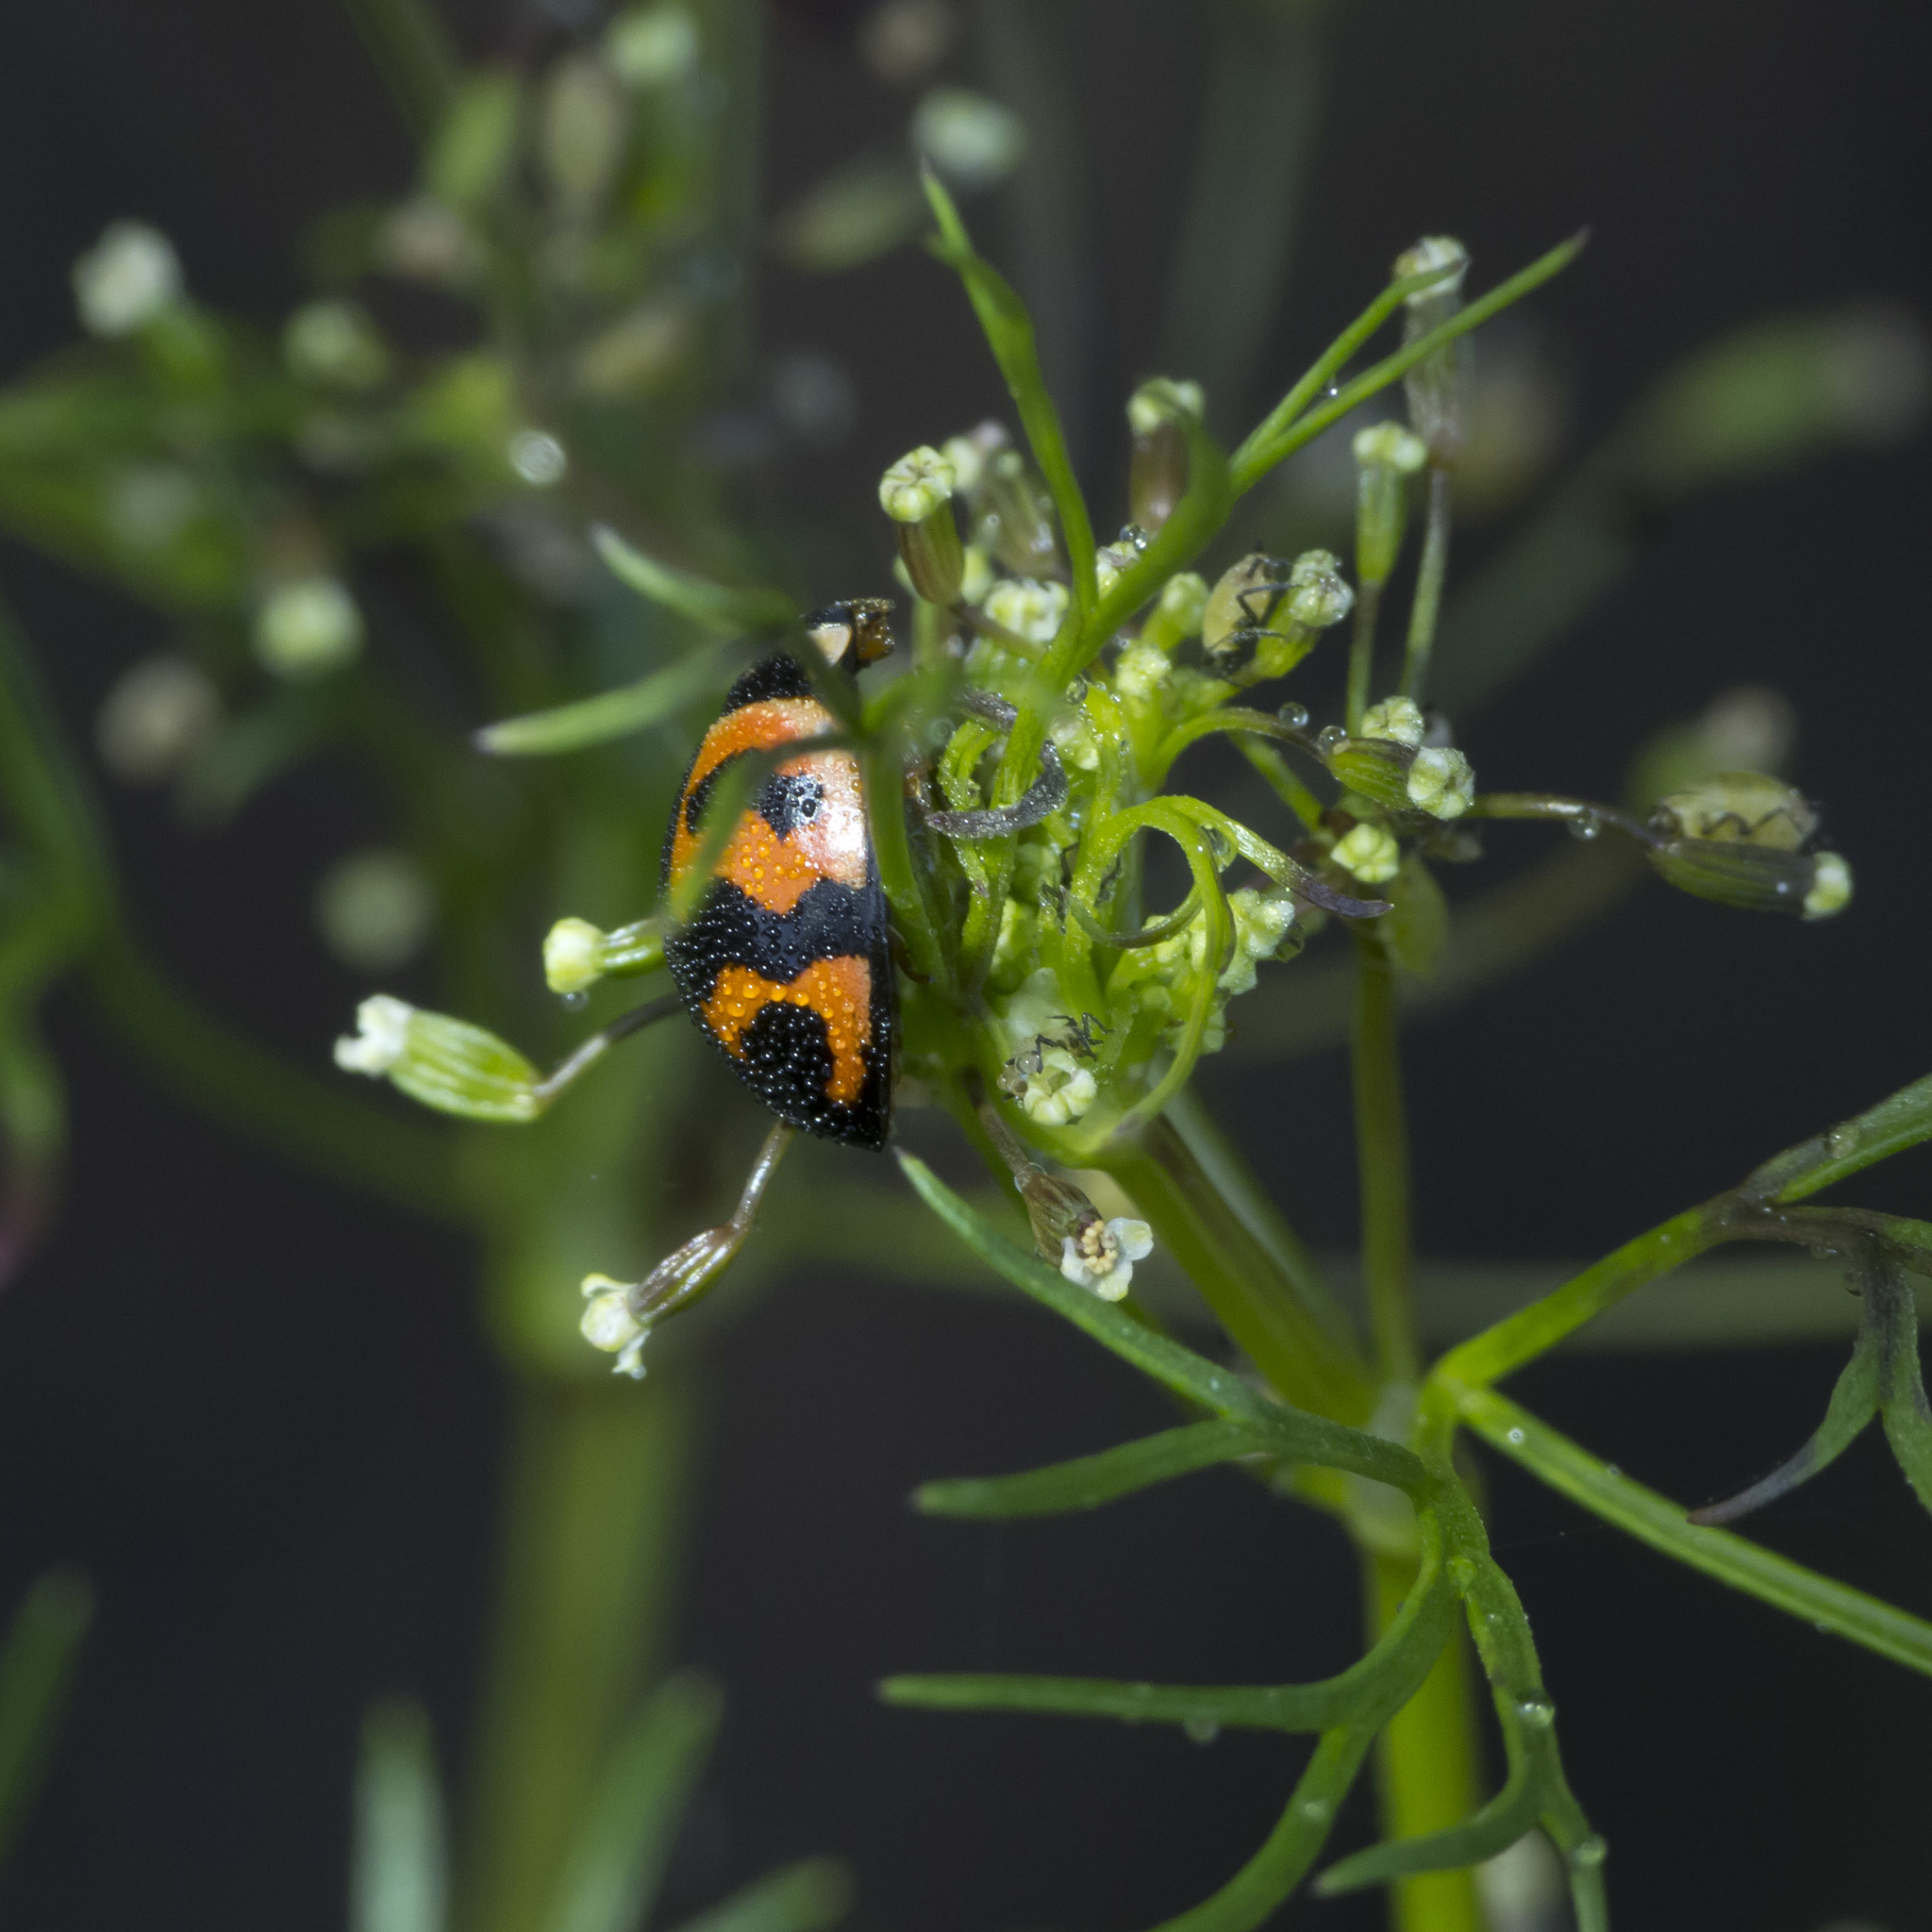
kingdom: Animalia
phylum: Arthropoda
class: Insecta
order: Coleoptera
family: Coccinellidae
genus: Cheilomenes
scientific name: Cheilomenes sexmaculata
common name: Ladybird beetle
